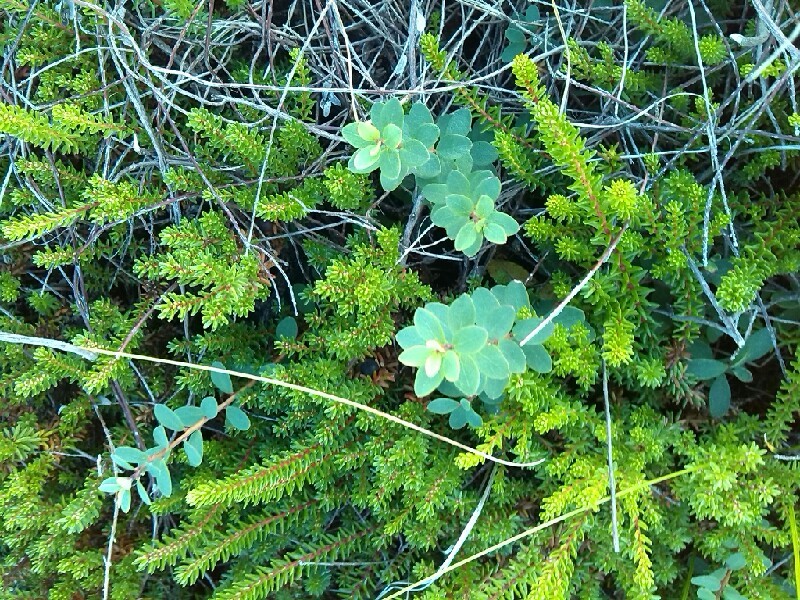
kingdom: Plantae
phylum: Tracheophyta
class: Magnoliopsida
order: Ericales
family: Ericaceae
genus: Vaccinium
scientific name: Vaccinium uliginosum
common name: Bog bilberry
